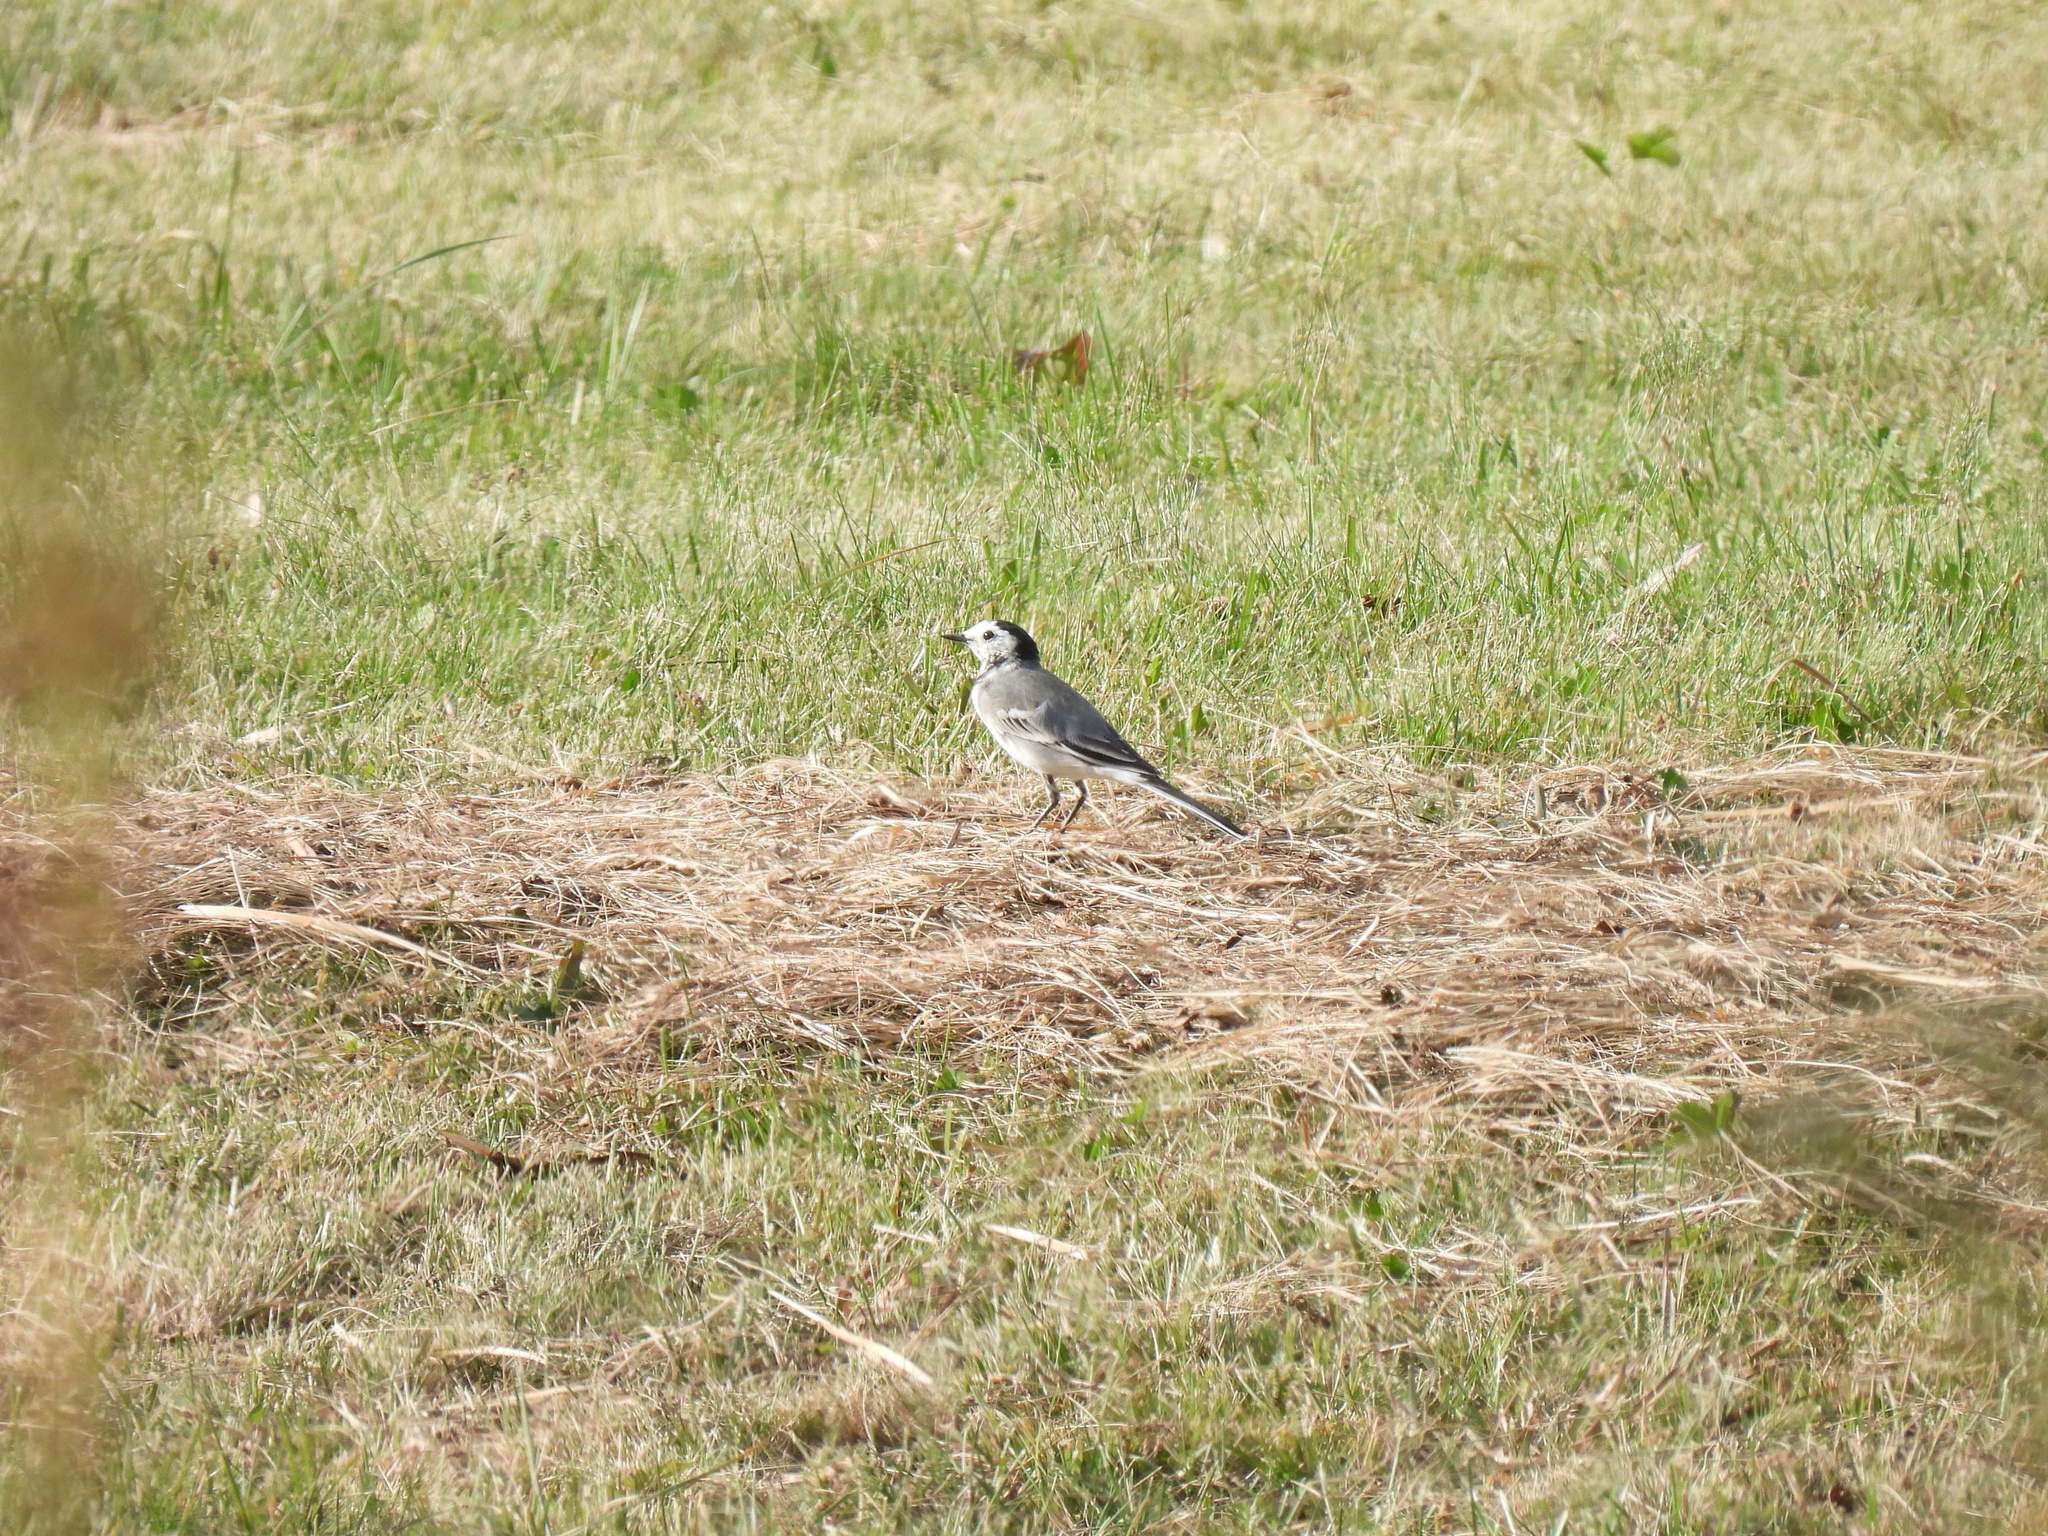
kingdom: Animalia
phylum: Chordata
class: Aves
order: Passeriformes
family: Motacillidae
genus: Motacilla
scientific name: Motacilla alba
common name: White wagtail
